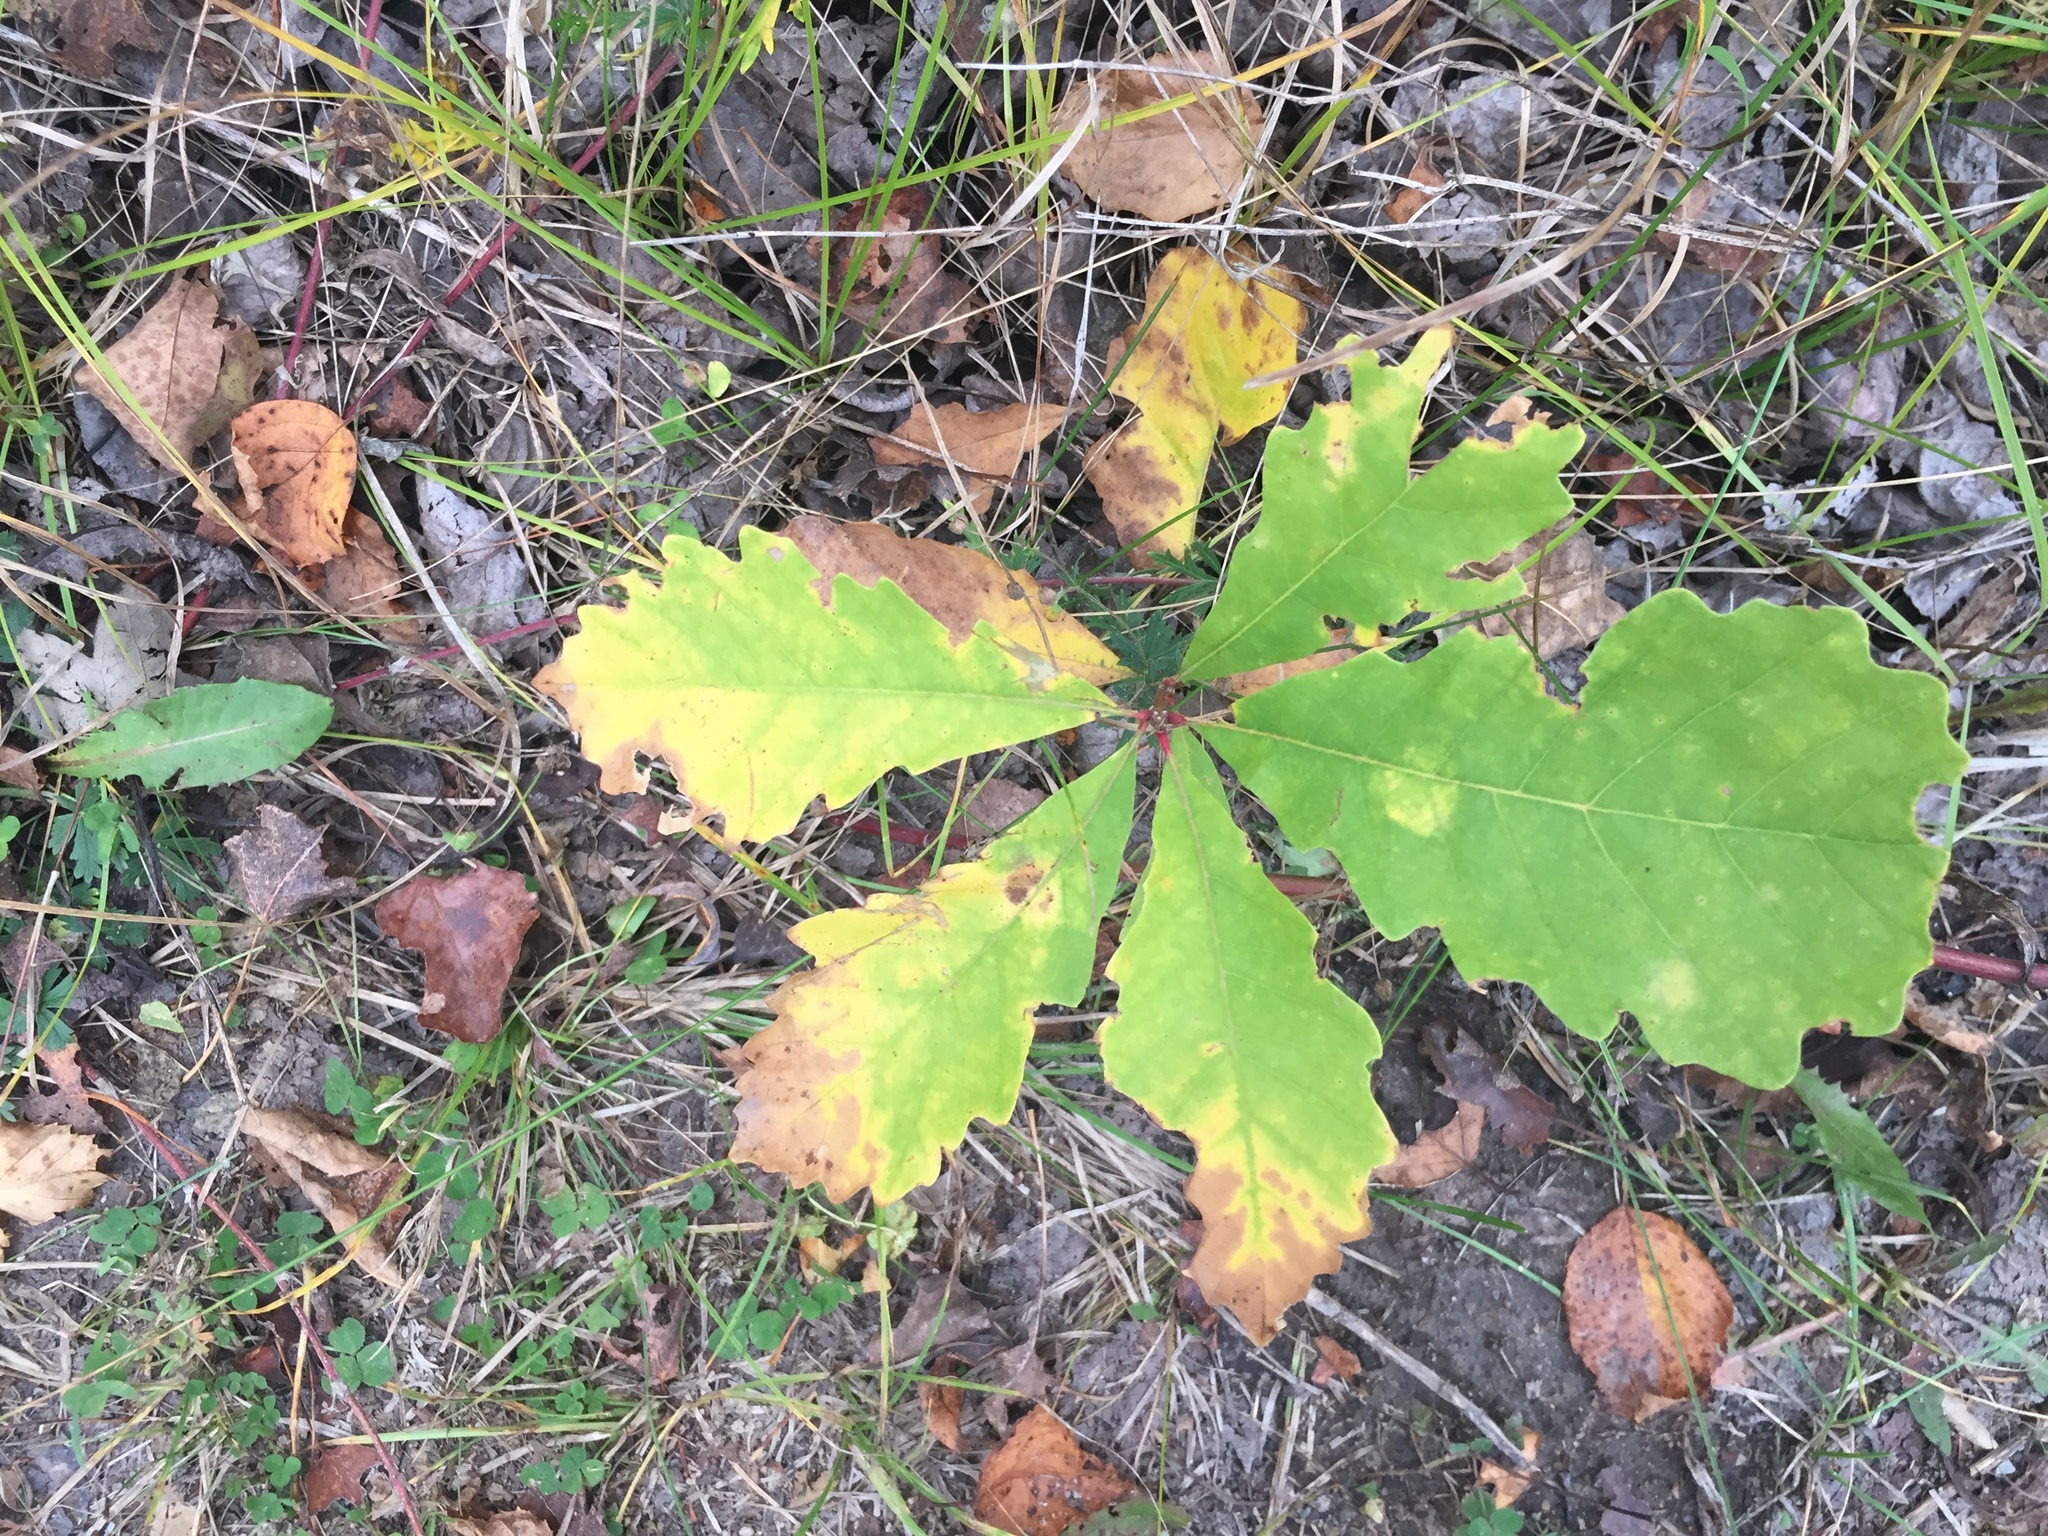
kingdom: Plantae
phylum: Tracheophyta
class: Magnoliopsida
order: Fagales
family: Fagaceae
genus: Quercus
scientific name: Quercus macrocarpa
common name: Bur oak
